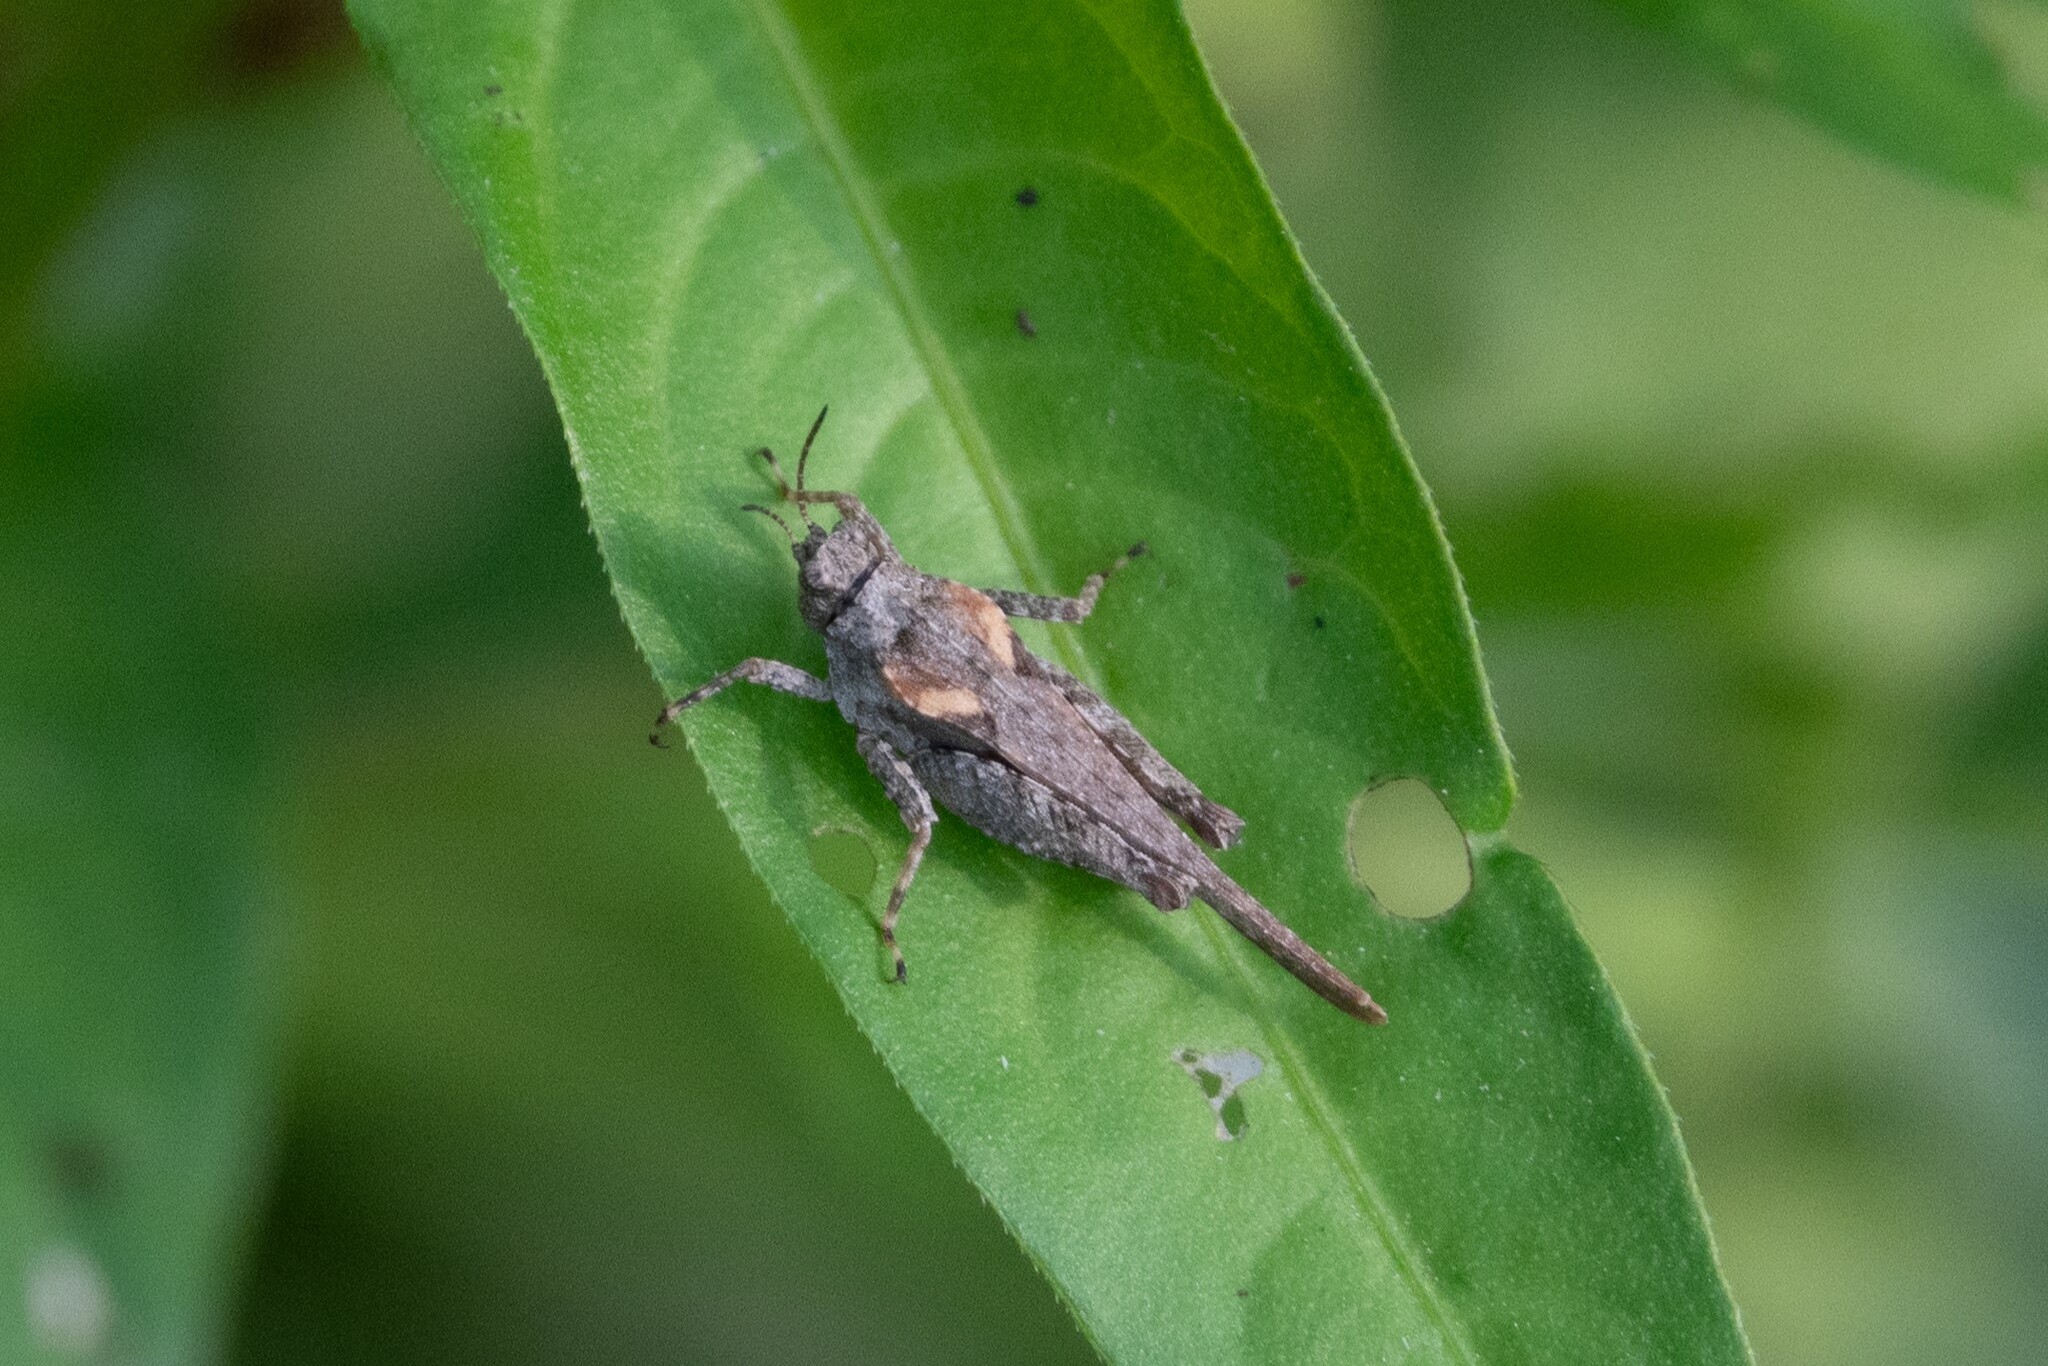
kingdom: Animalia
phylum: Arthropoda
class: Insecta
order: Orthoptera
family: Tetrigidae
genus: Tetrix
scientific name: Tetrix bolivari
